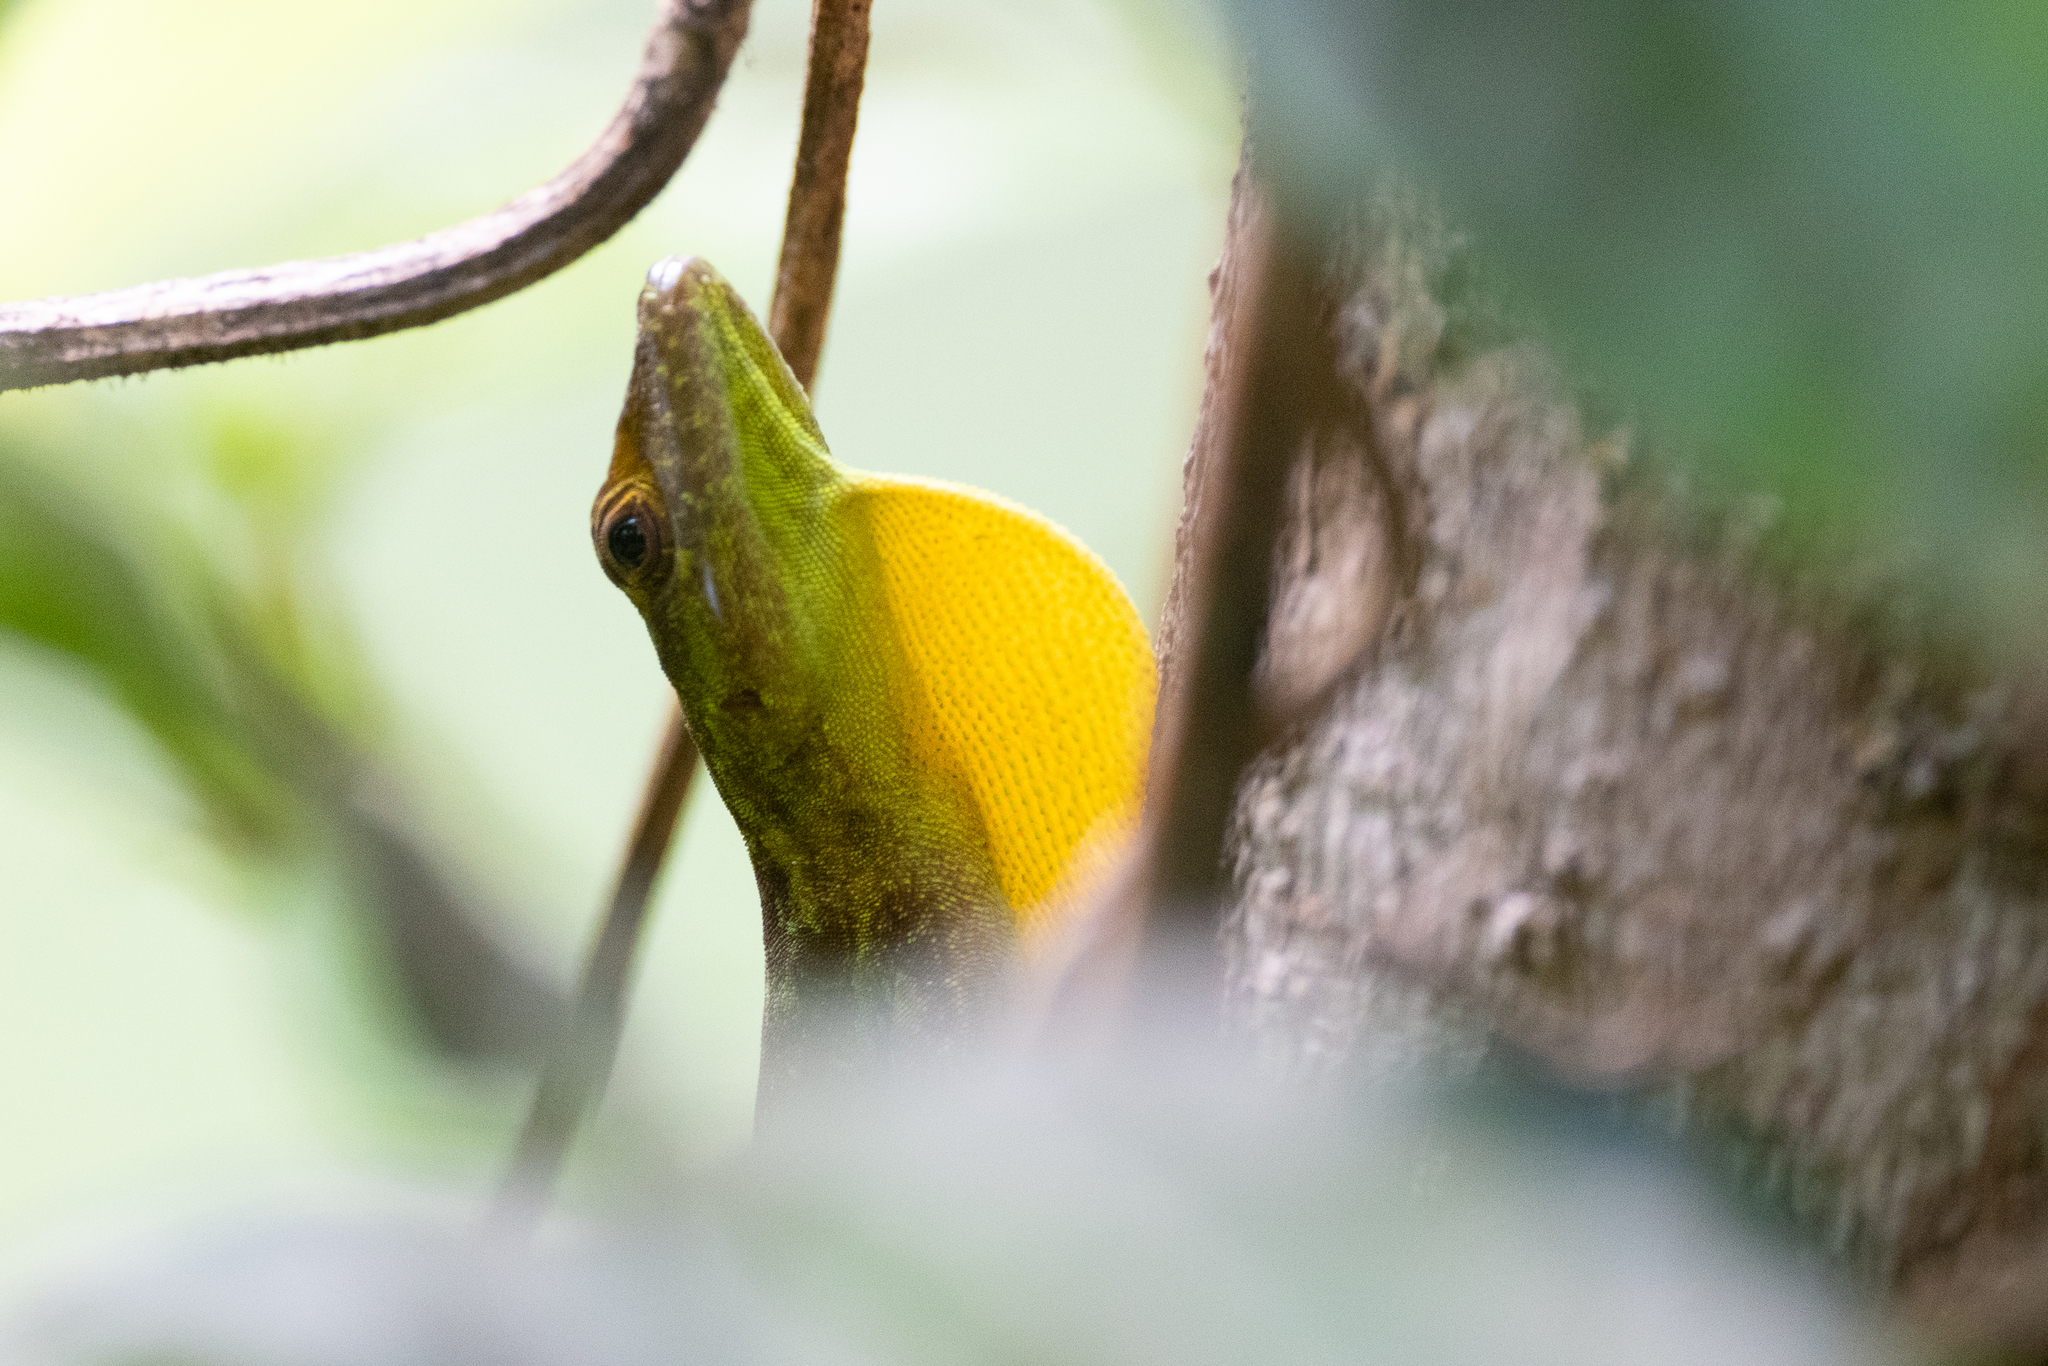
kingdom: Animalia
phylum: Chordata
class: Squamata
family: Dactyloidae
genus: Anolis
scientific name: Anolis evermanni
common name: Emerald anole
